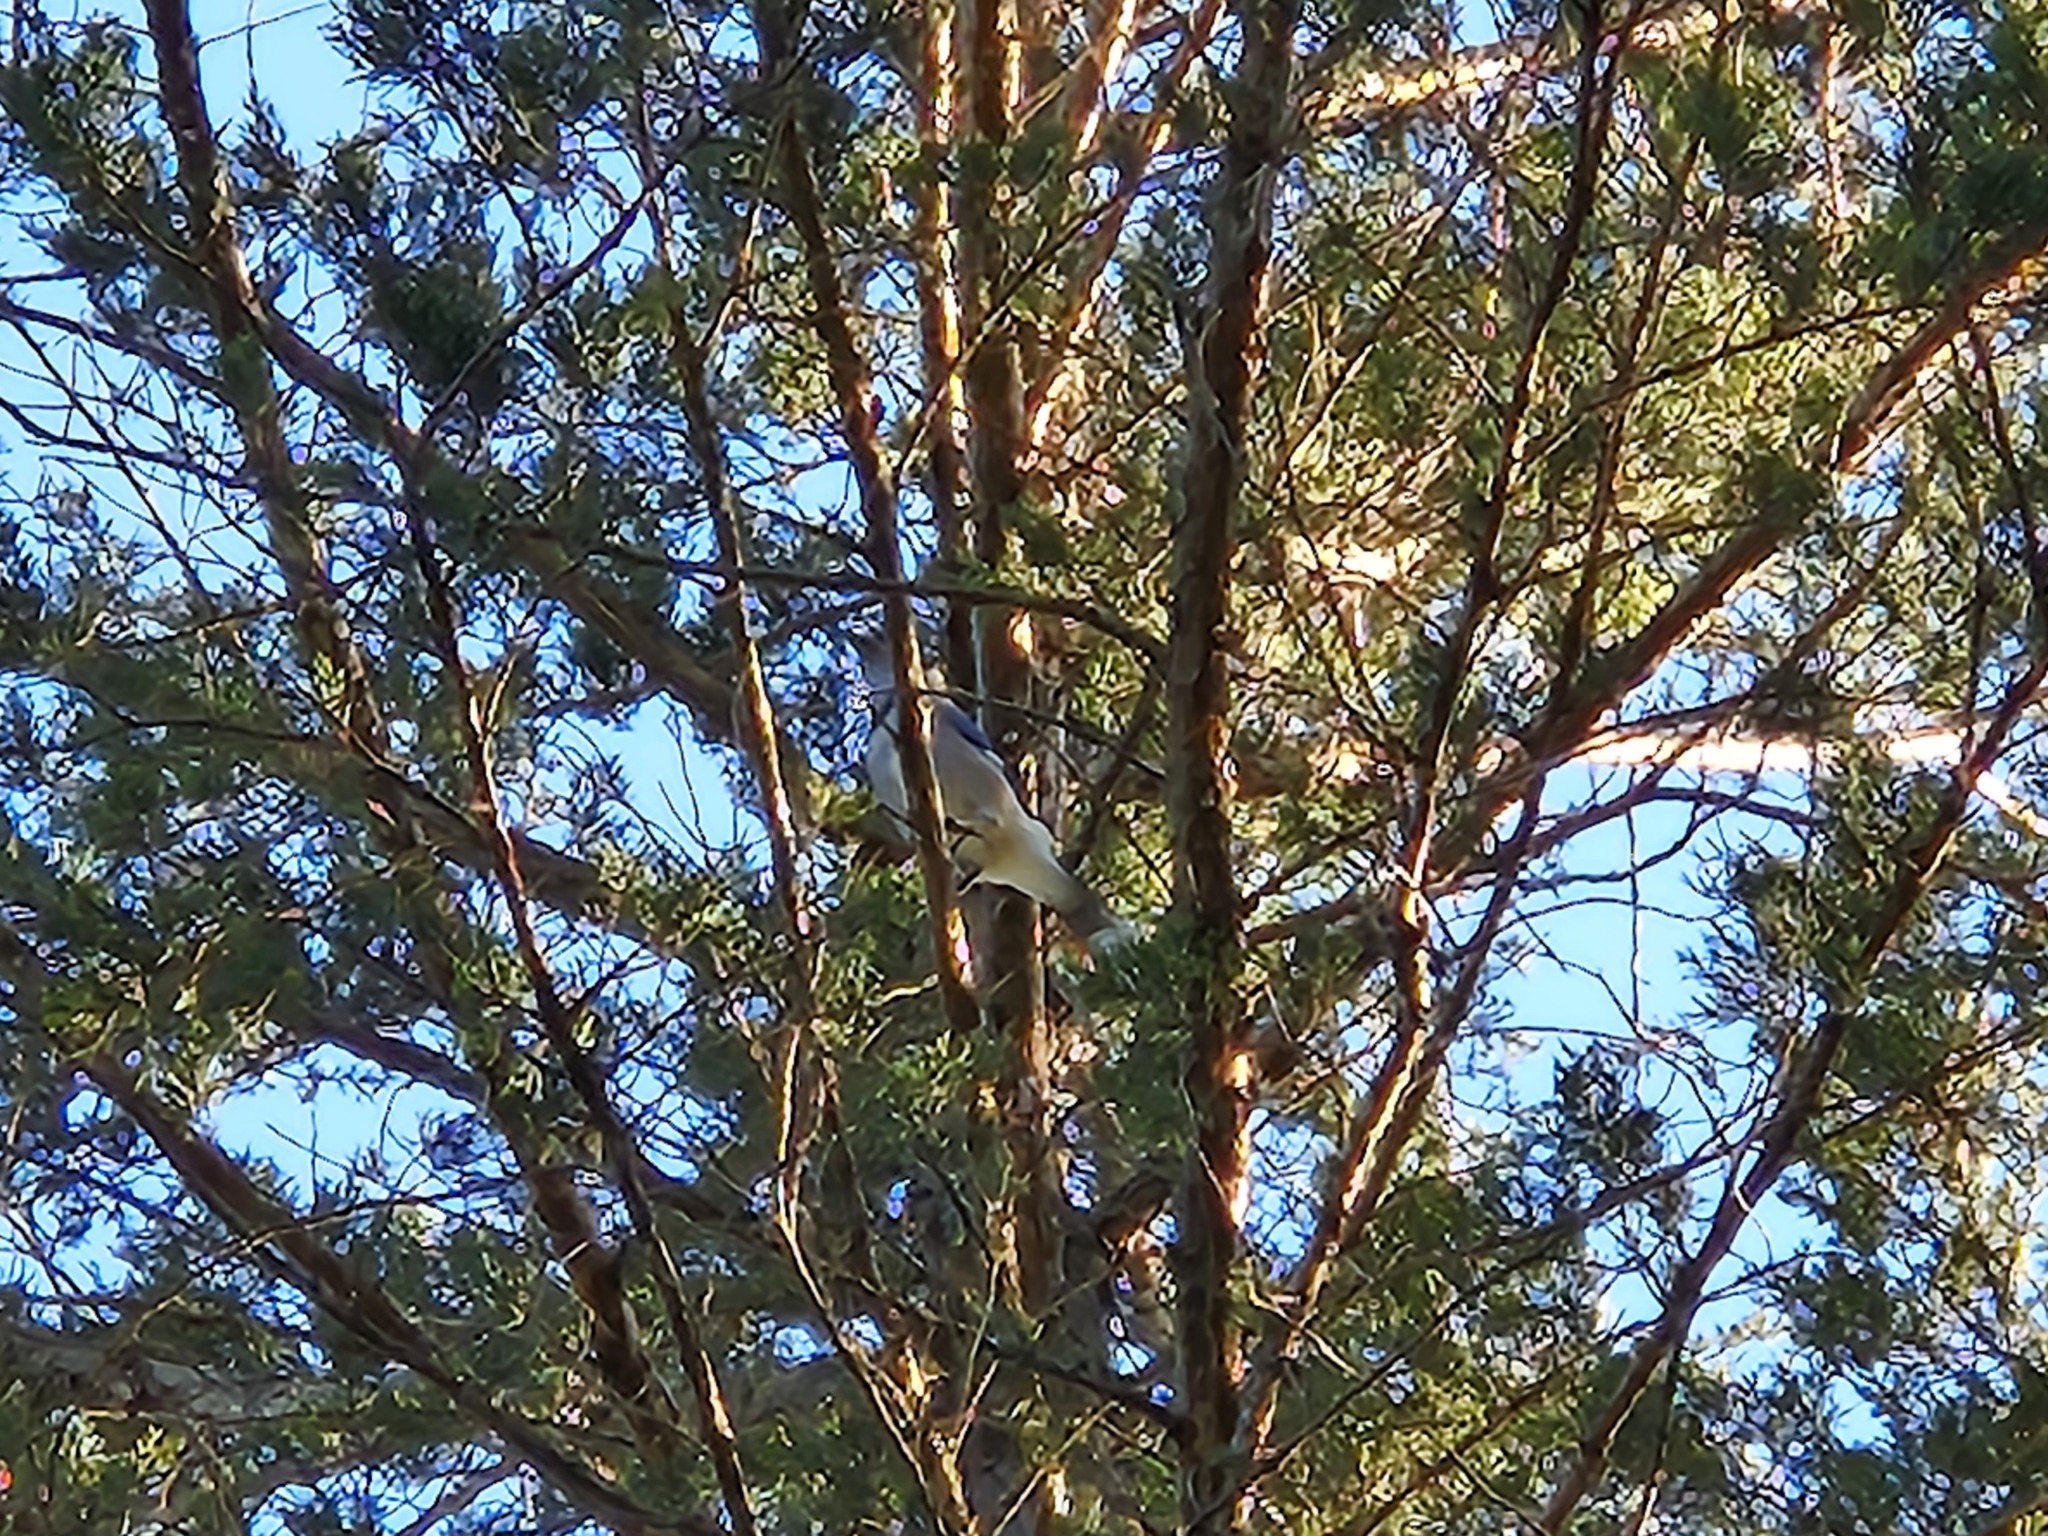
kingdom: Animalia
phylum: Chordata
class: Aves
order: Passeriformes
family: Corvidae
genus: Cyanocitta
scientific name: Cyanocitta cristata
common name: Blue jay
